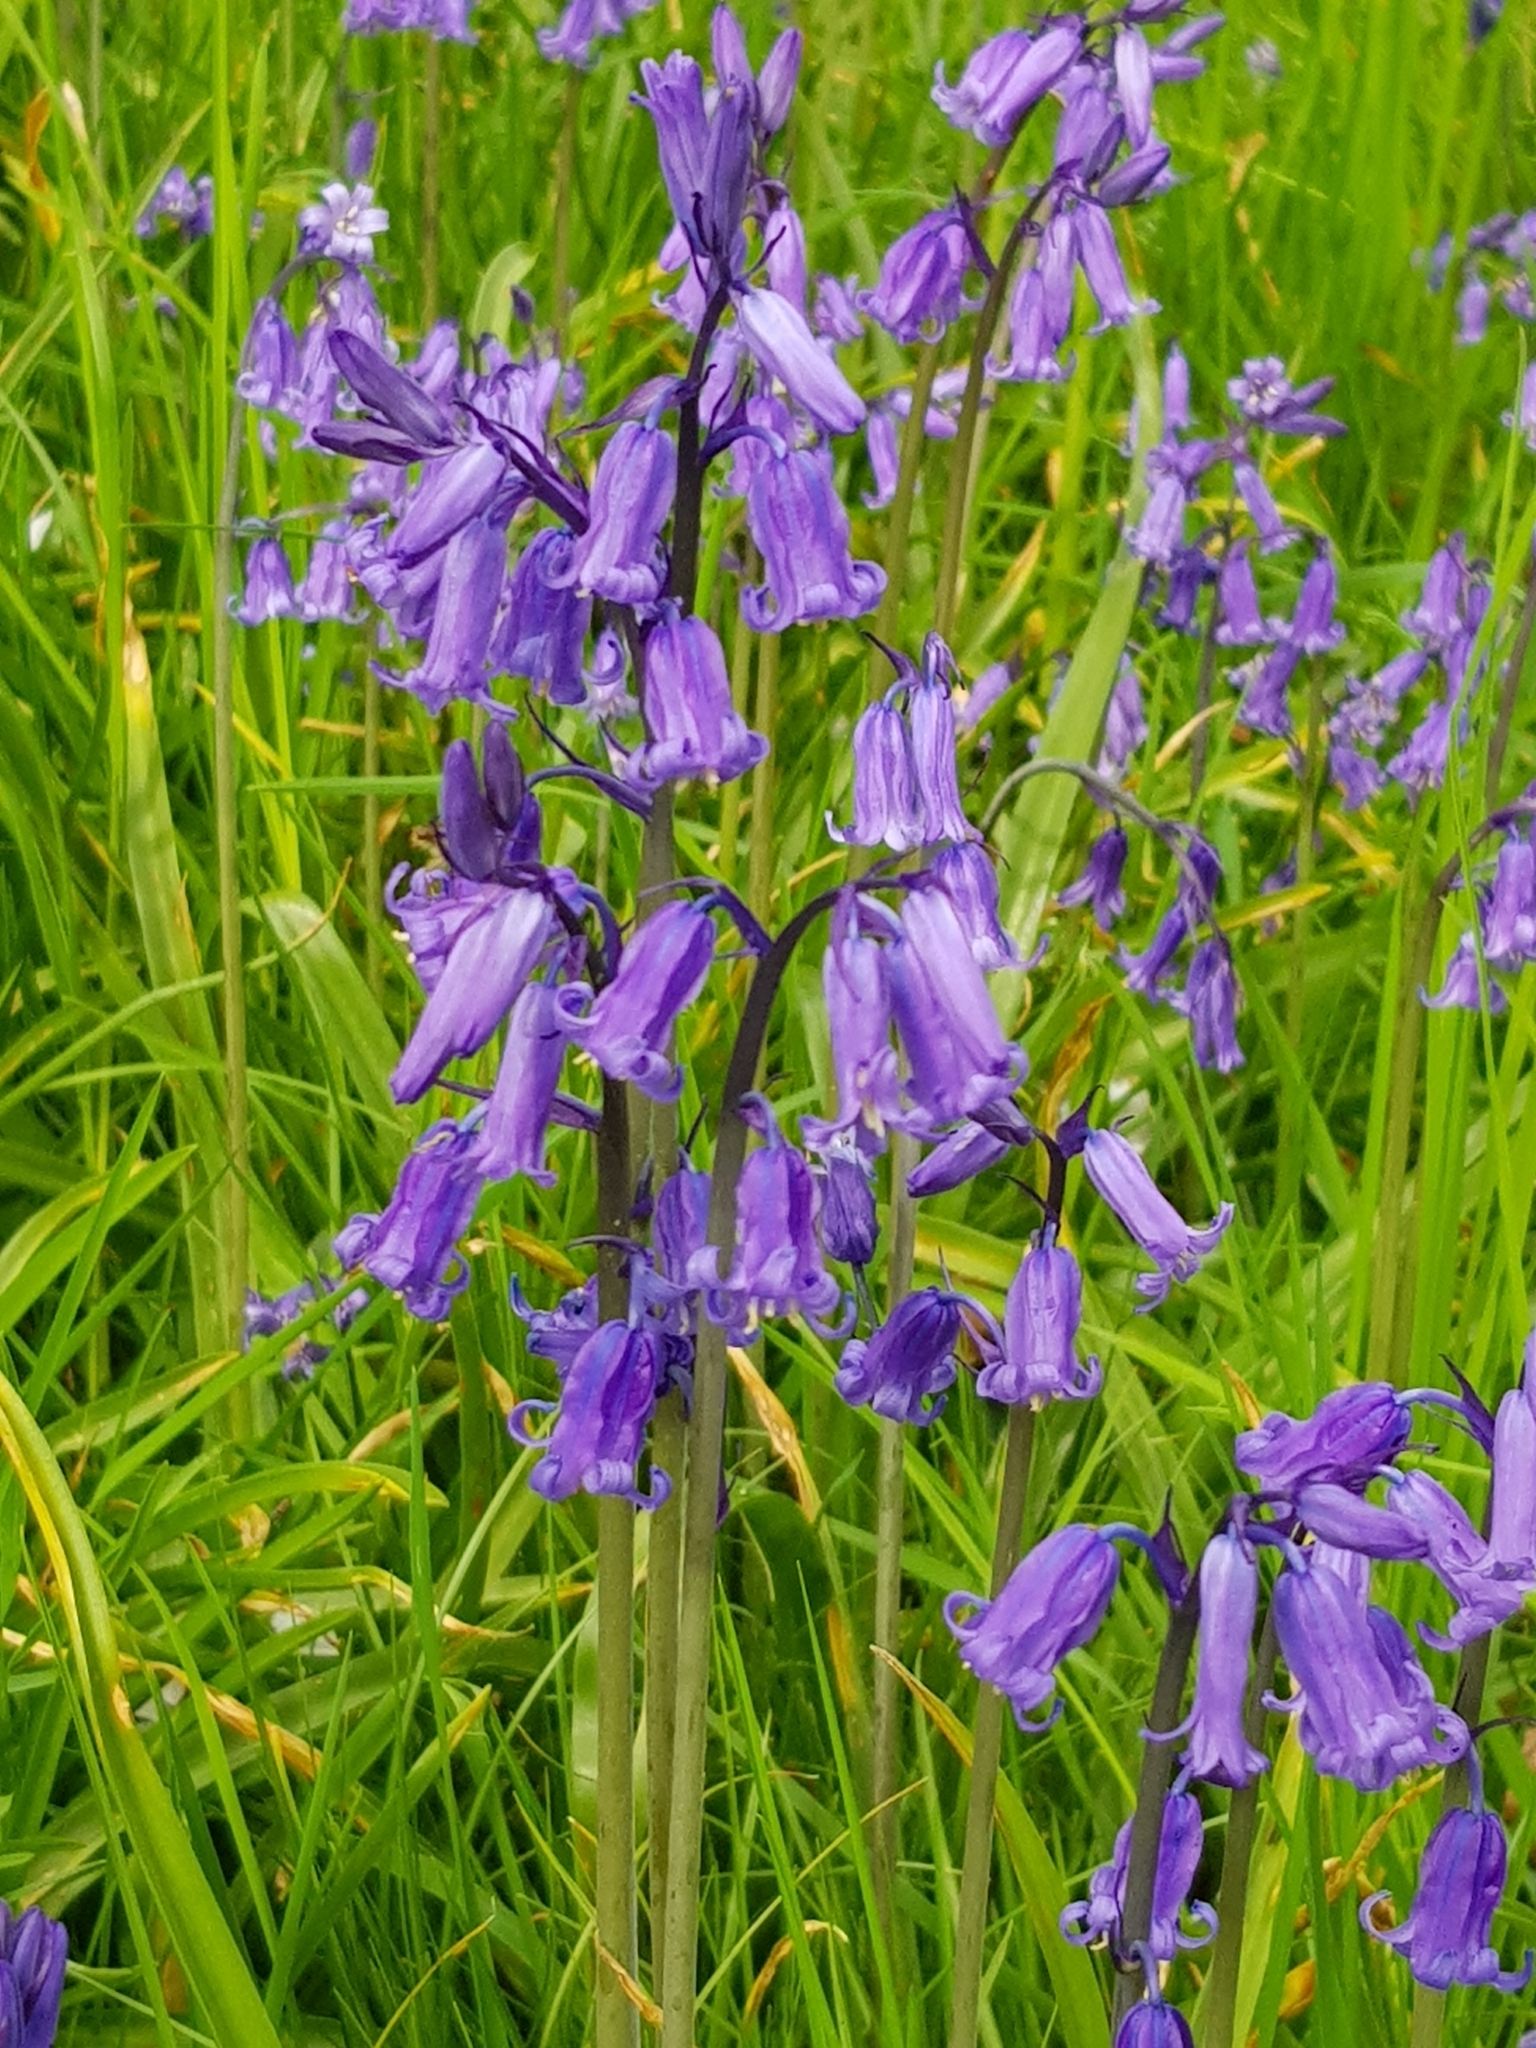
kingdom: Plantae
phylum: Tracheophyta
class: Liliopsida
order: Asparagales
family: Asparagaceae
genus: Hyacinthoides
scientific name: Hyacinthoides non-scripta
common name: Bluebell
